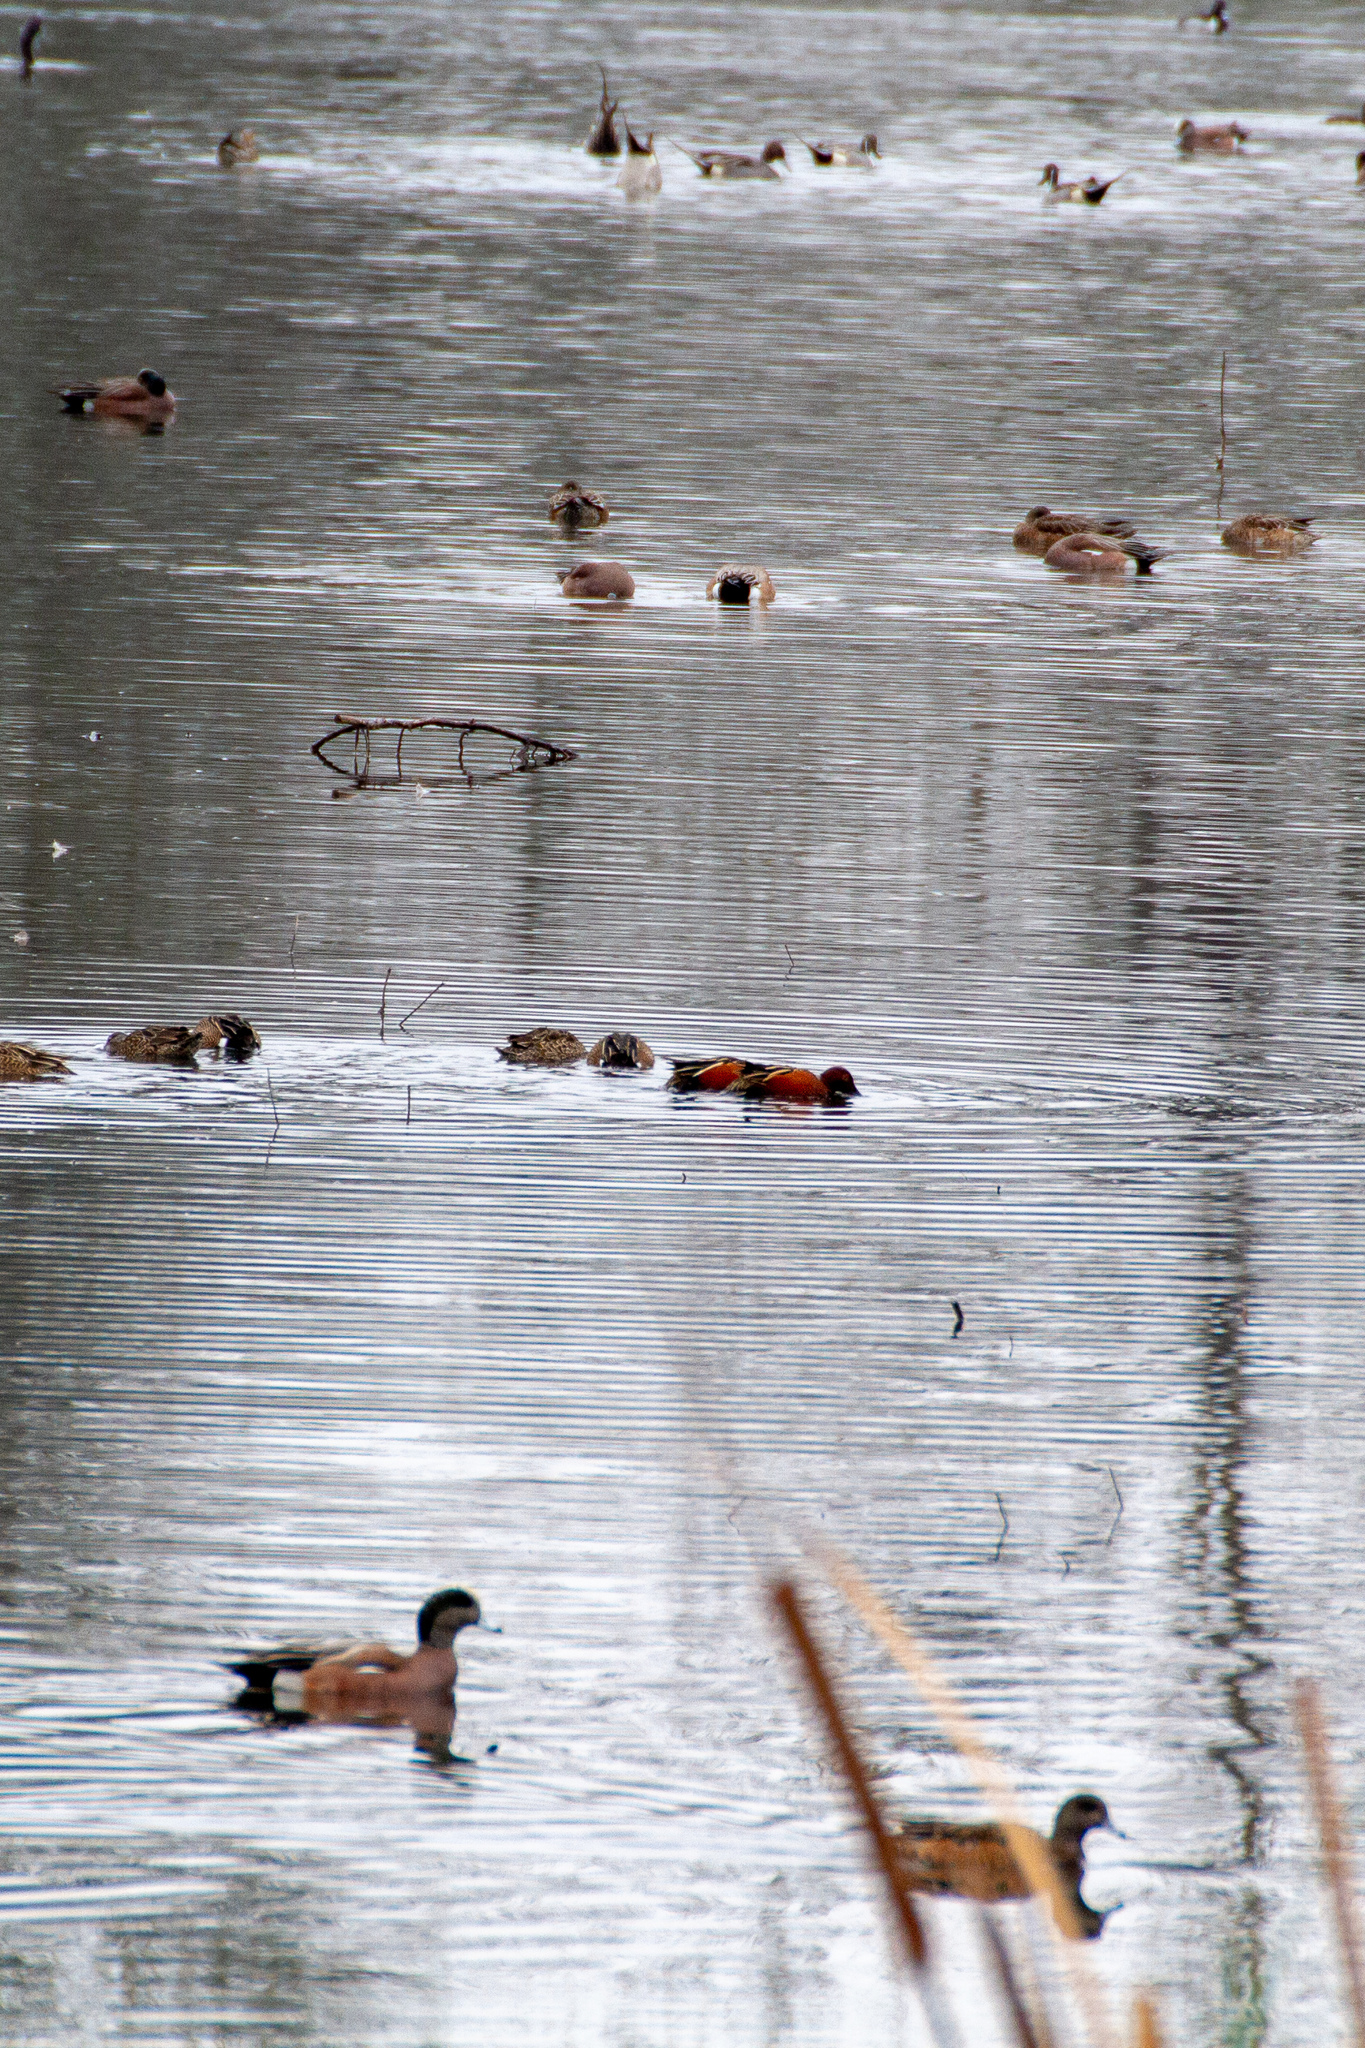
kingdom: Animalia
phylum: Chordata
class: Aves
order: Anseriformes
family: Anatidae
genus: Spatula
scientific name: Spatula cyanoptera
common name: Cinnamon teal
